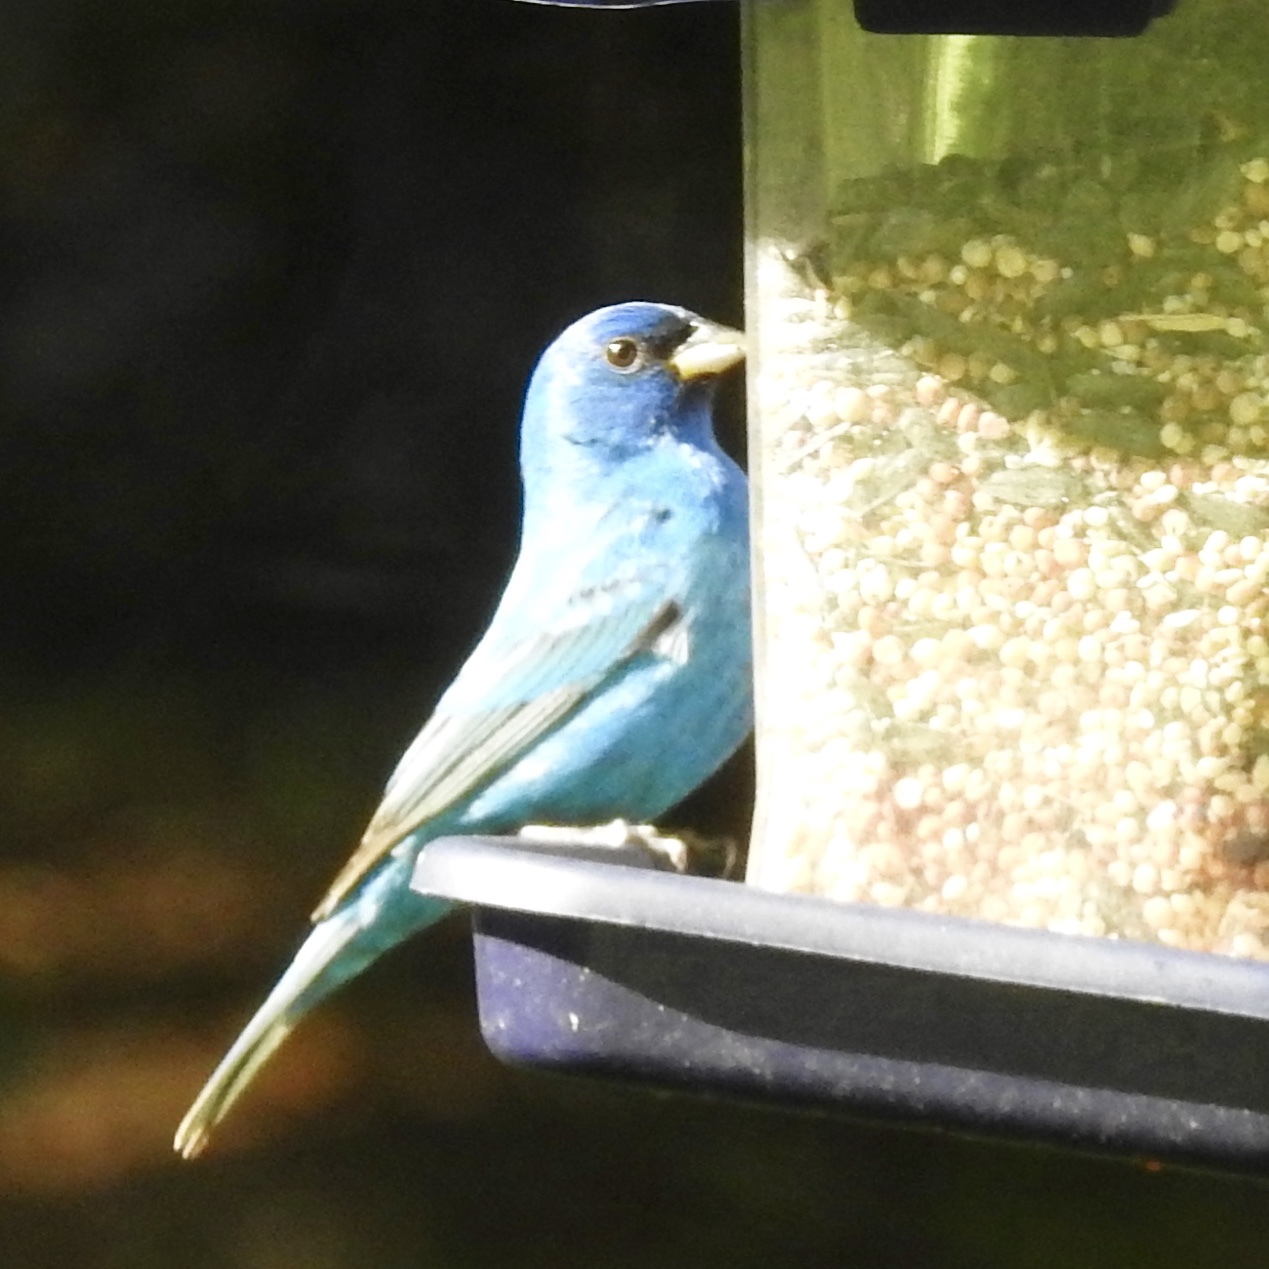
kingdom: Animalia
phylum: Chordata
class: Aves
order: Passeriformes
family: Cardinalidae
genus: Passerina
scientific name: Passerina cyanea
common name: Indigo bunting
